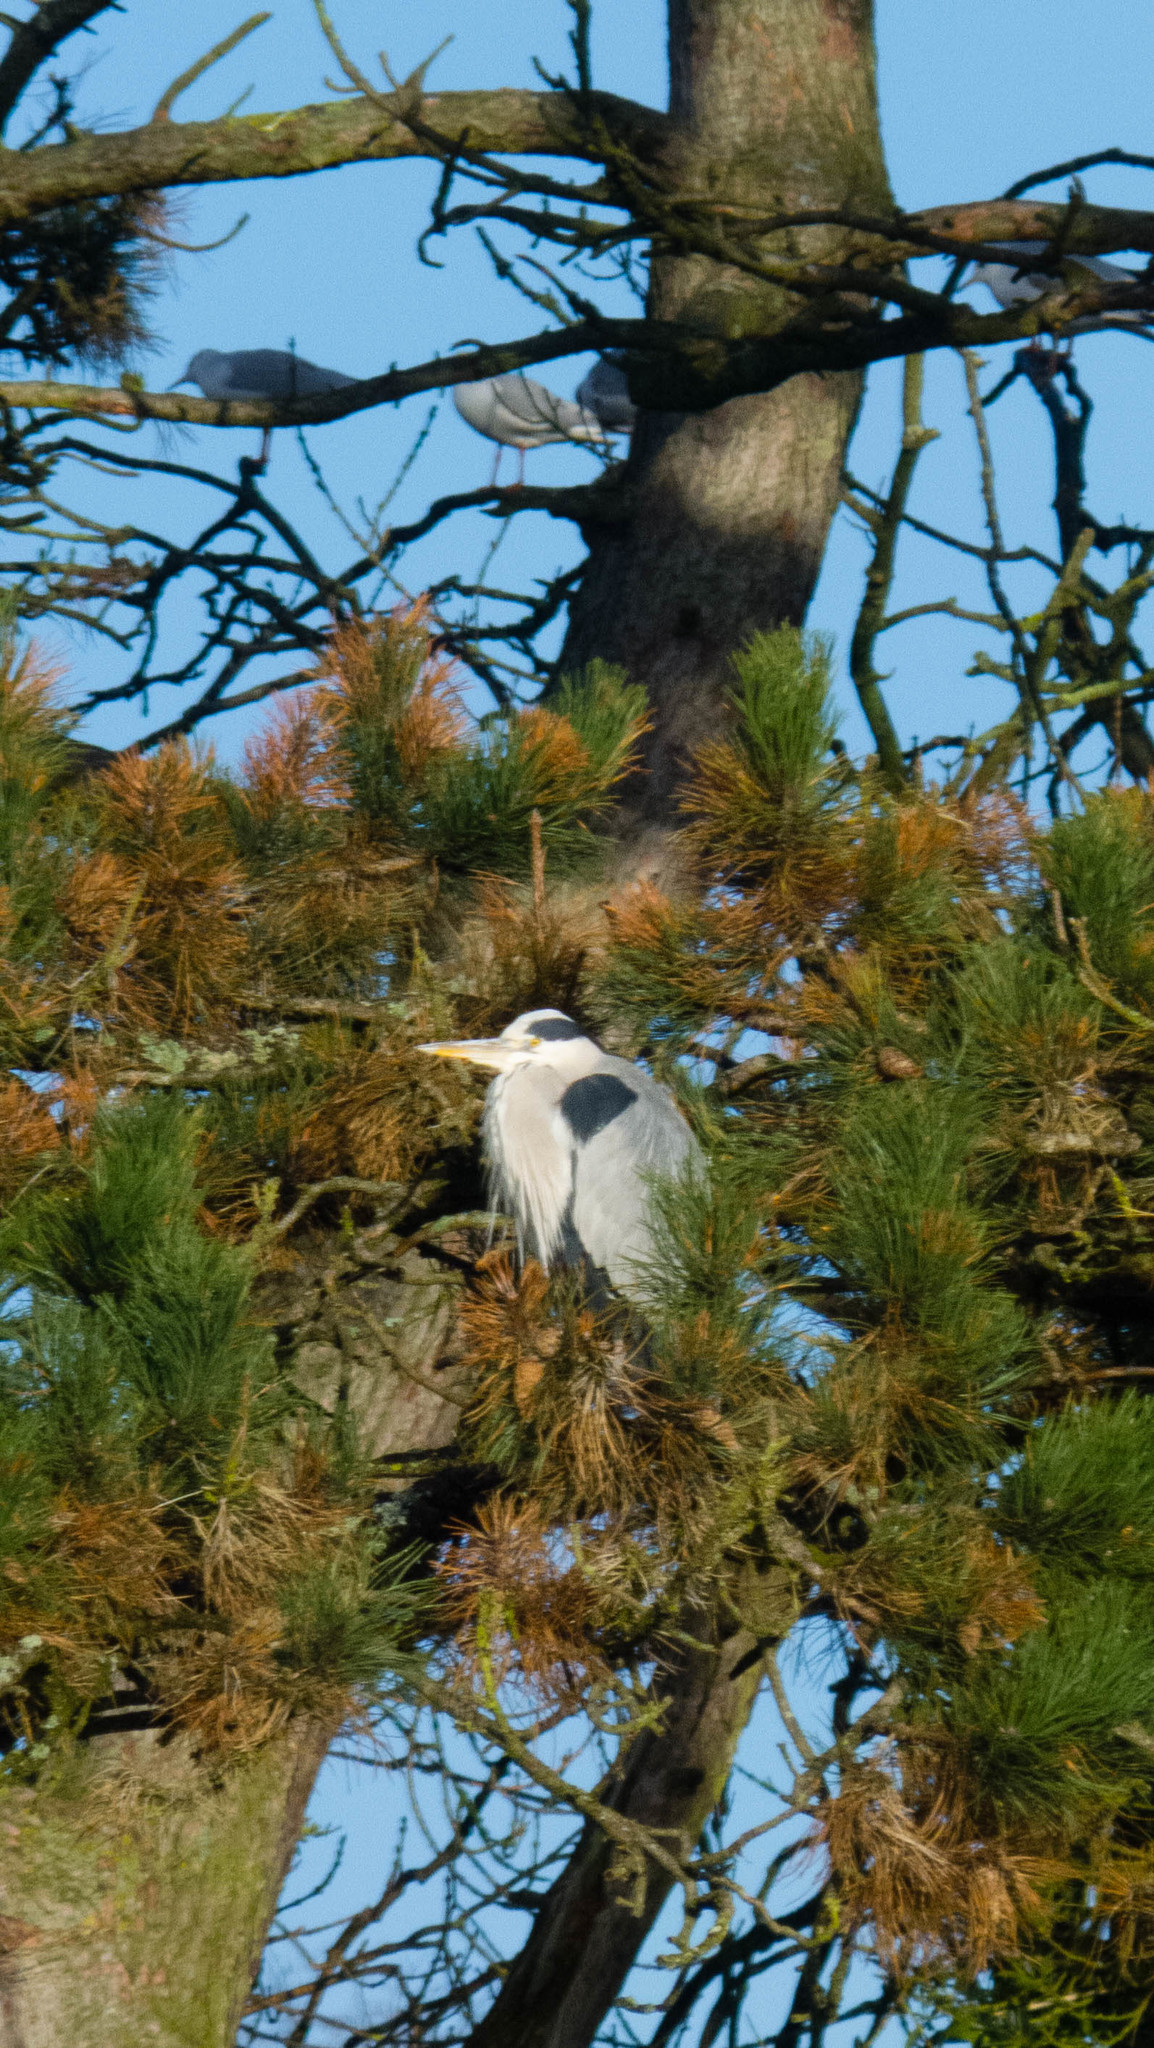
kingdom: Animalia
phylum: Chordata
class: Aves
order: Pelecaniformes
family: Ardeidae
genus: Ardea
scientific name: Ardea cinerea
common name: Grey heron
